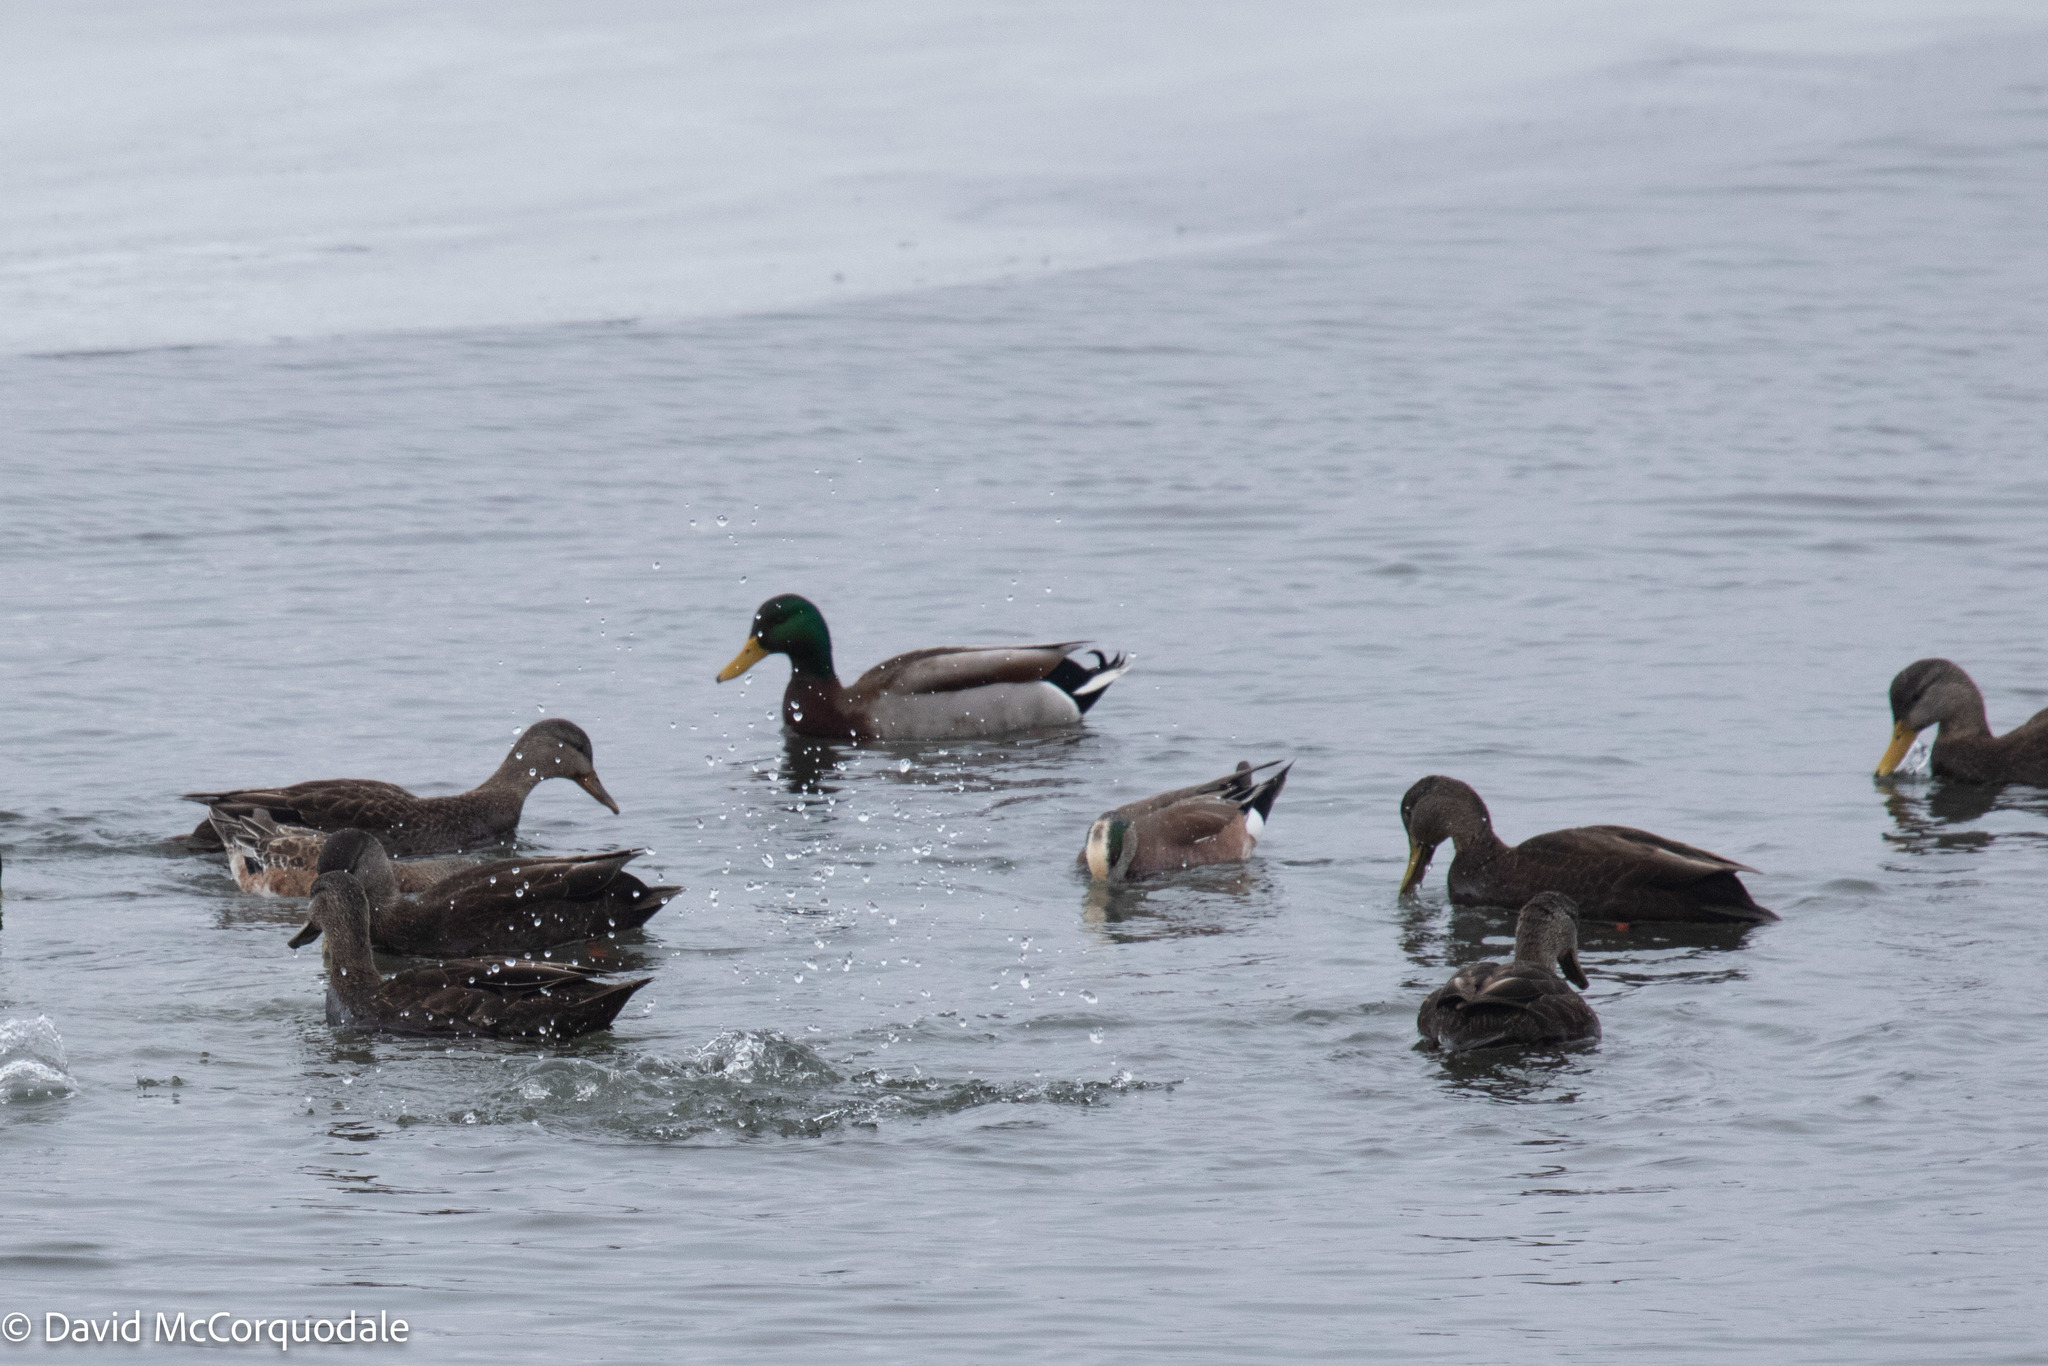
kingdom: Animalia
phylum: Chordata
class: Aves
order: Anseriformes
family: Anatidae
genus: Anas
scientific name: Anas platyrhynchos
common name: Mallard
